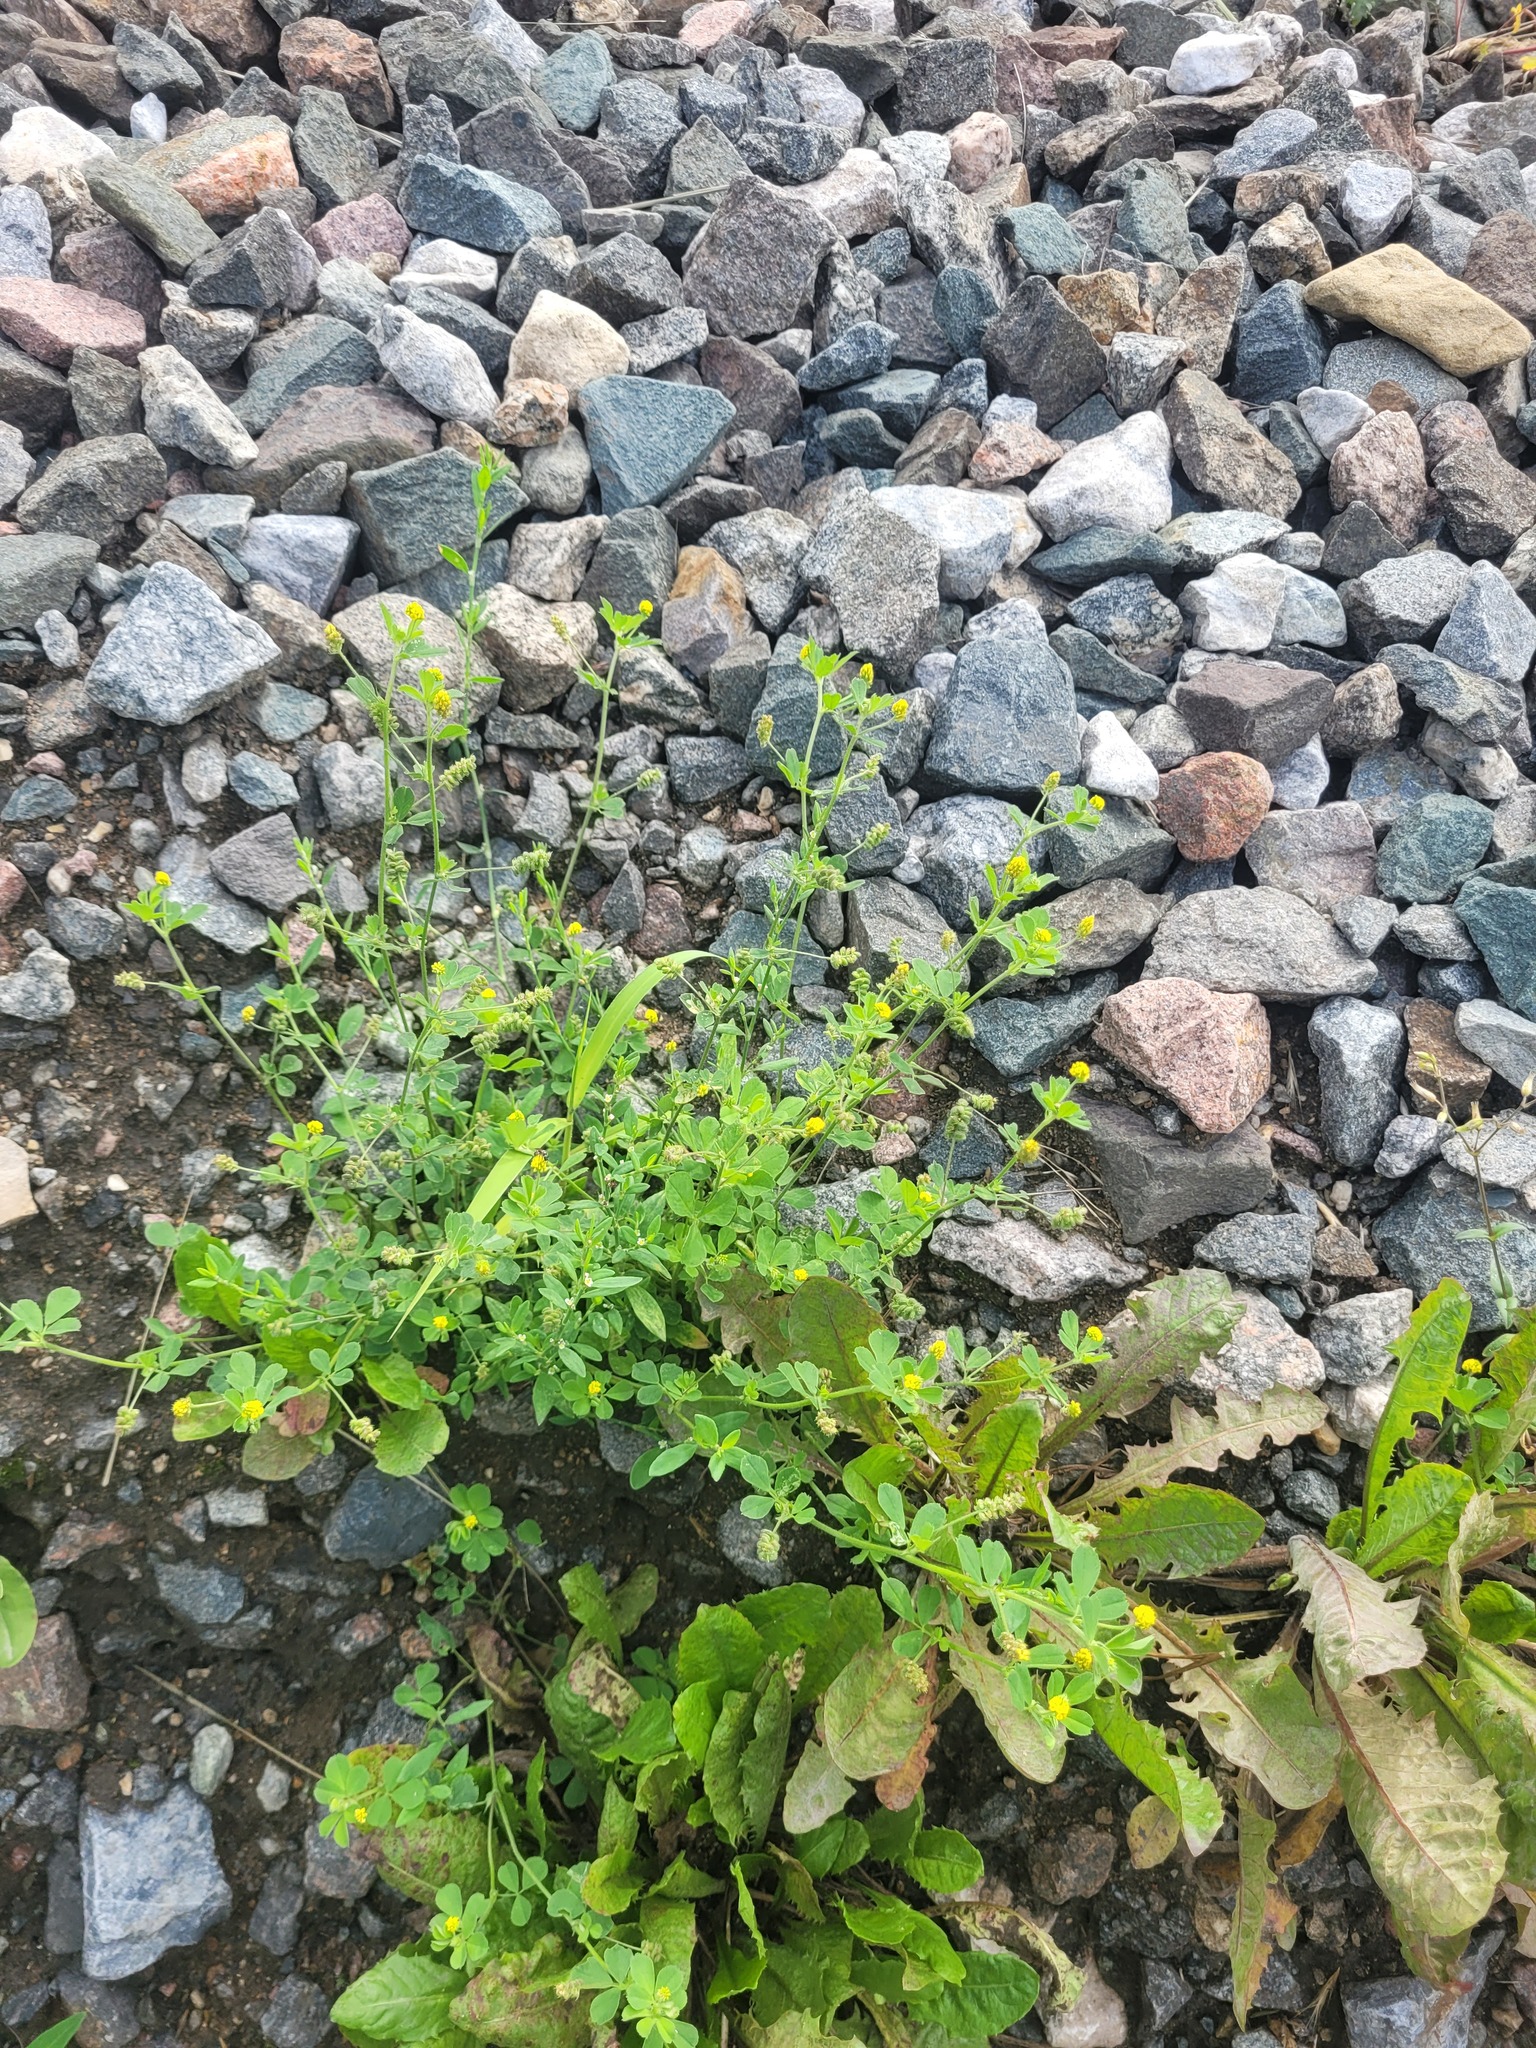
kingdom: Plantae
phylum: Tracheophyta
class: Magnoliopsida
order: Fabales
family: Fabaceae
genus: Medicago
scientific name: Medicago lupulina
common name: Black medick
